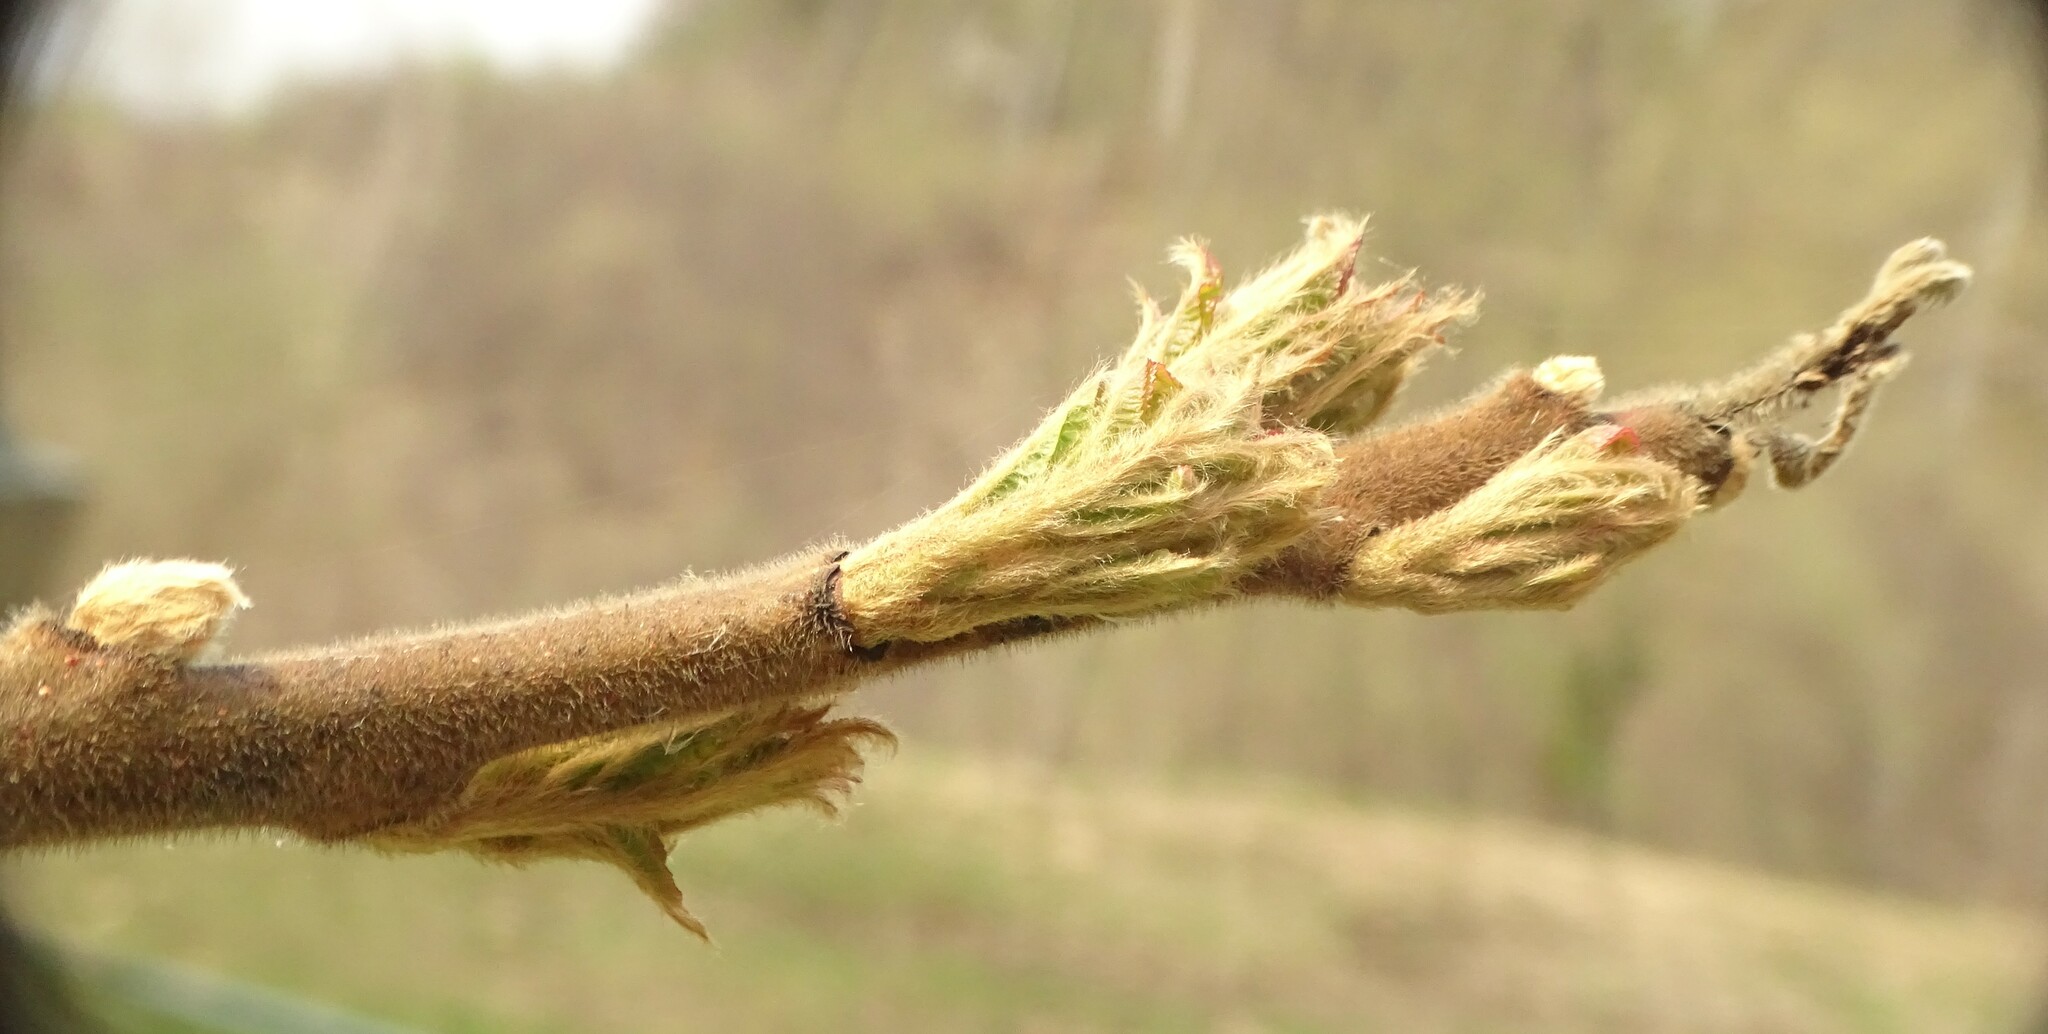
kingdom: Plantae
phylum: Tracheophyta
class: Magnoliopsida
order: Sapindales
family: Anacardiaceae
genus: Rhus
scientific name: Rhus typhina
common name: Staghorn sumac
